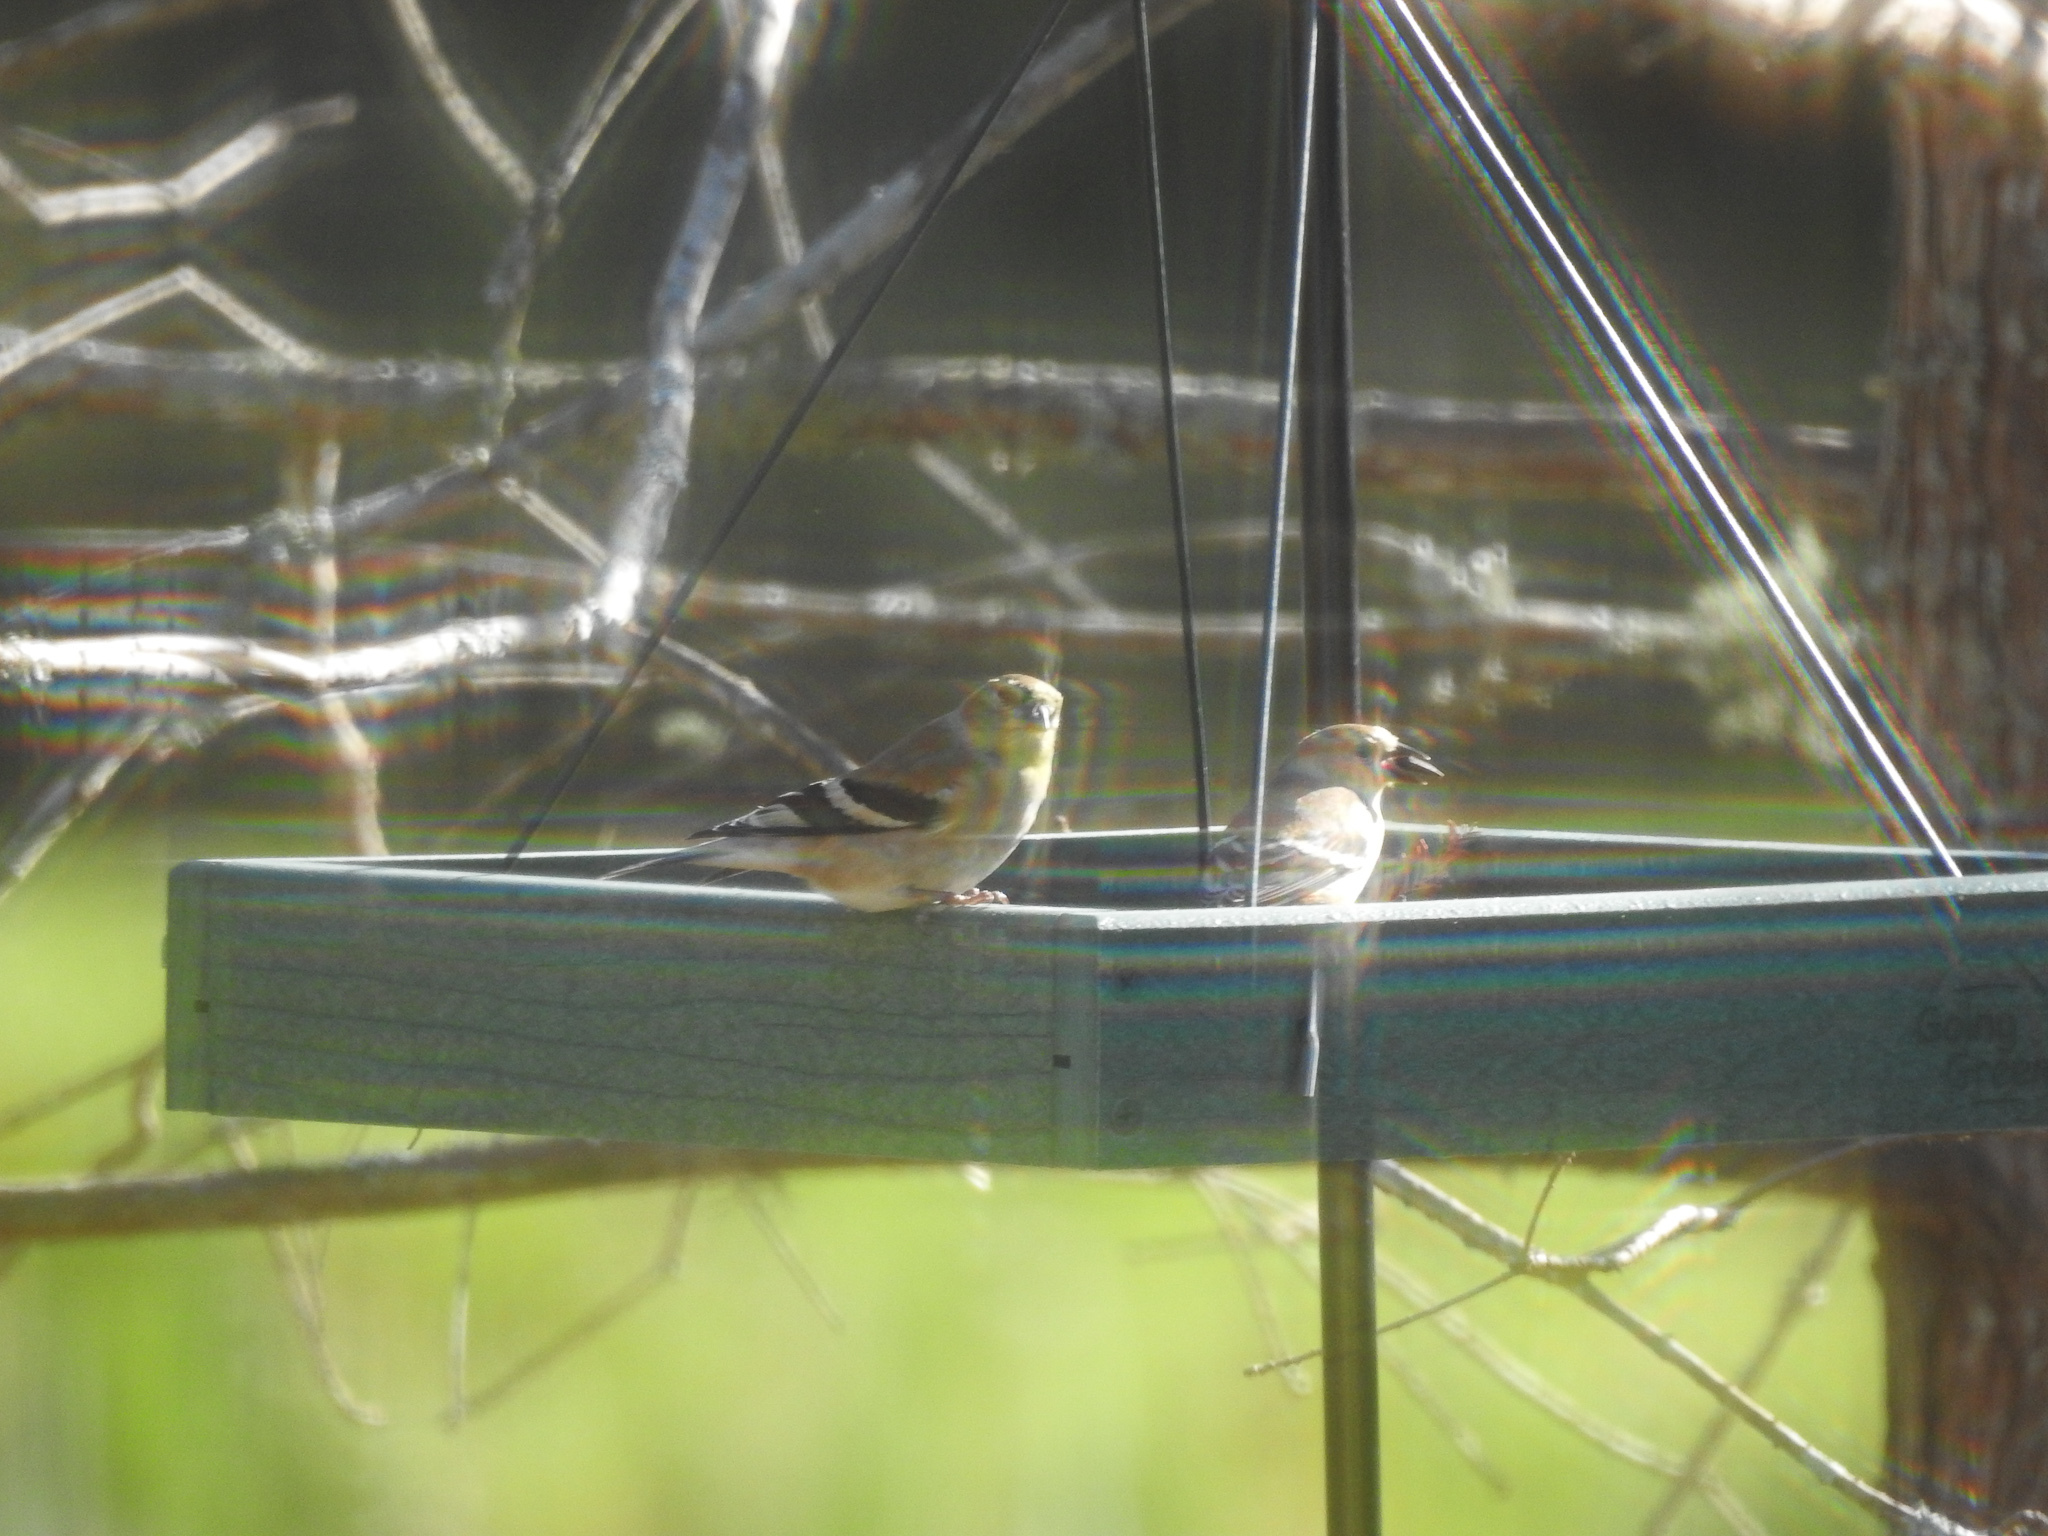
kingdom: Animalia
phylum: Chordata
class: Aves
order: Passeriformes
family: Fringillidae
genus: Spinus
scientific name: Spinus tristis
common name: American goldfinch
